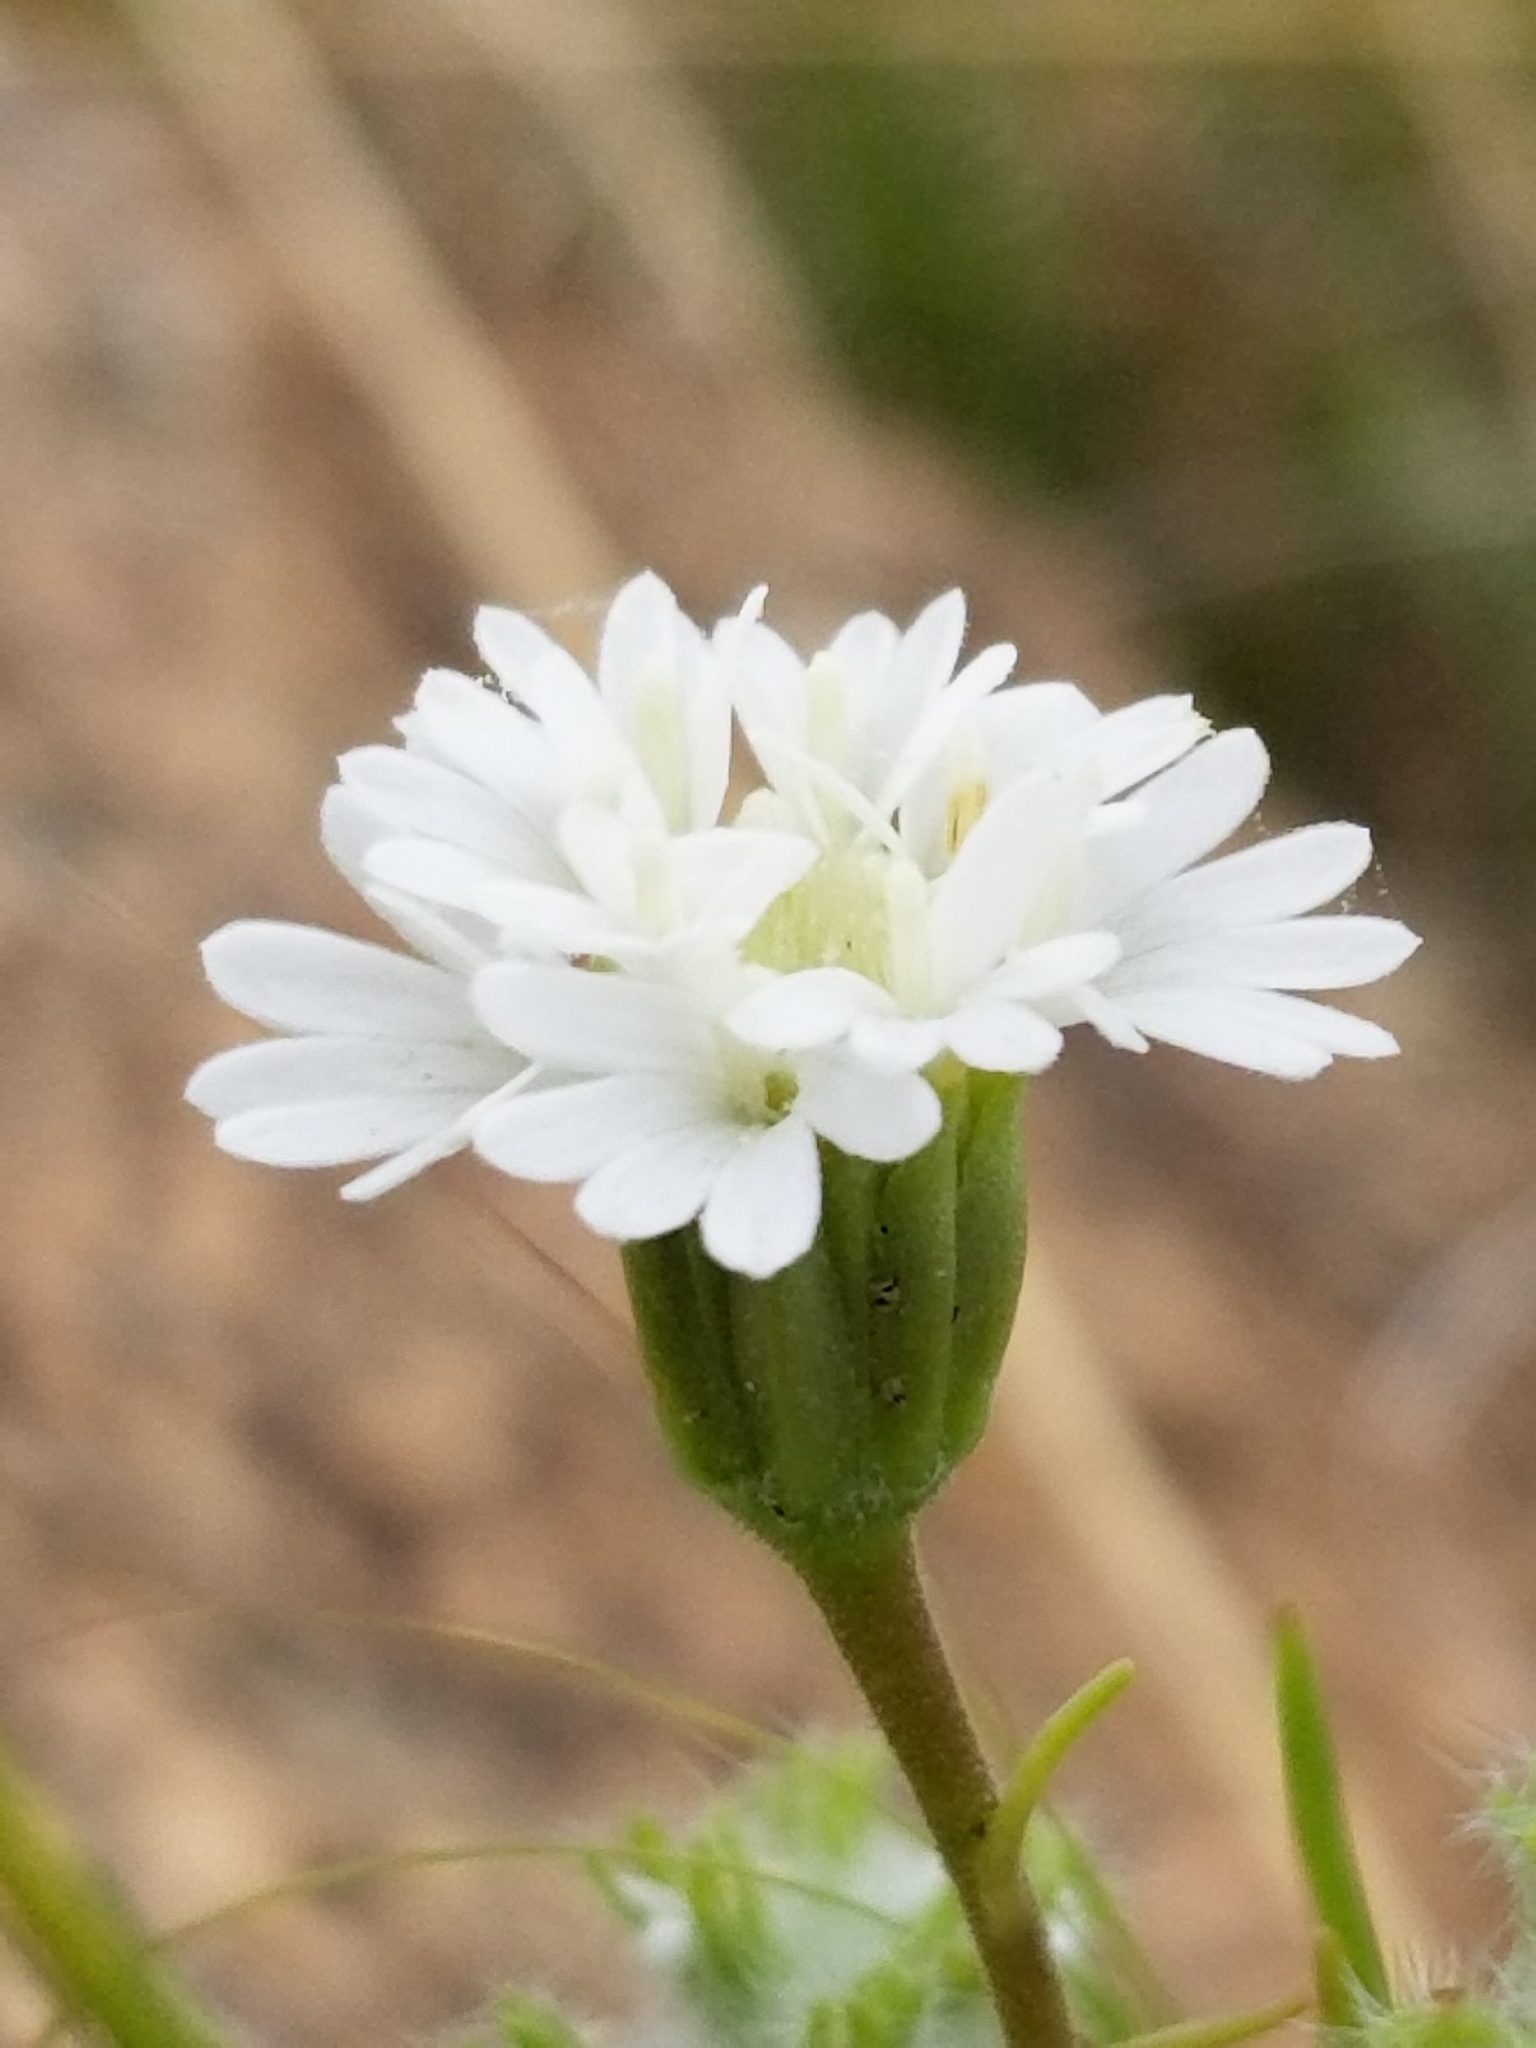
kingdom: Plantae
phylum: Tracheophyta
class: Magnoliopsida
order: Asterales
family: Asteraceae
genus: Chaenactis
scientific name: Chaenactis fremontii
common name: Fremont pincushion
